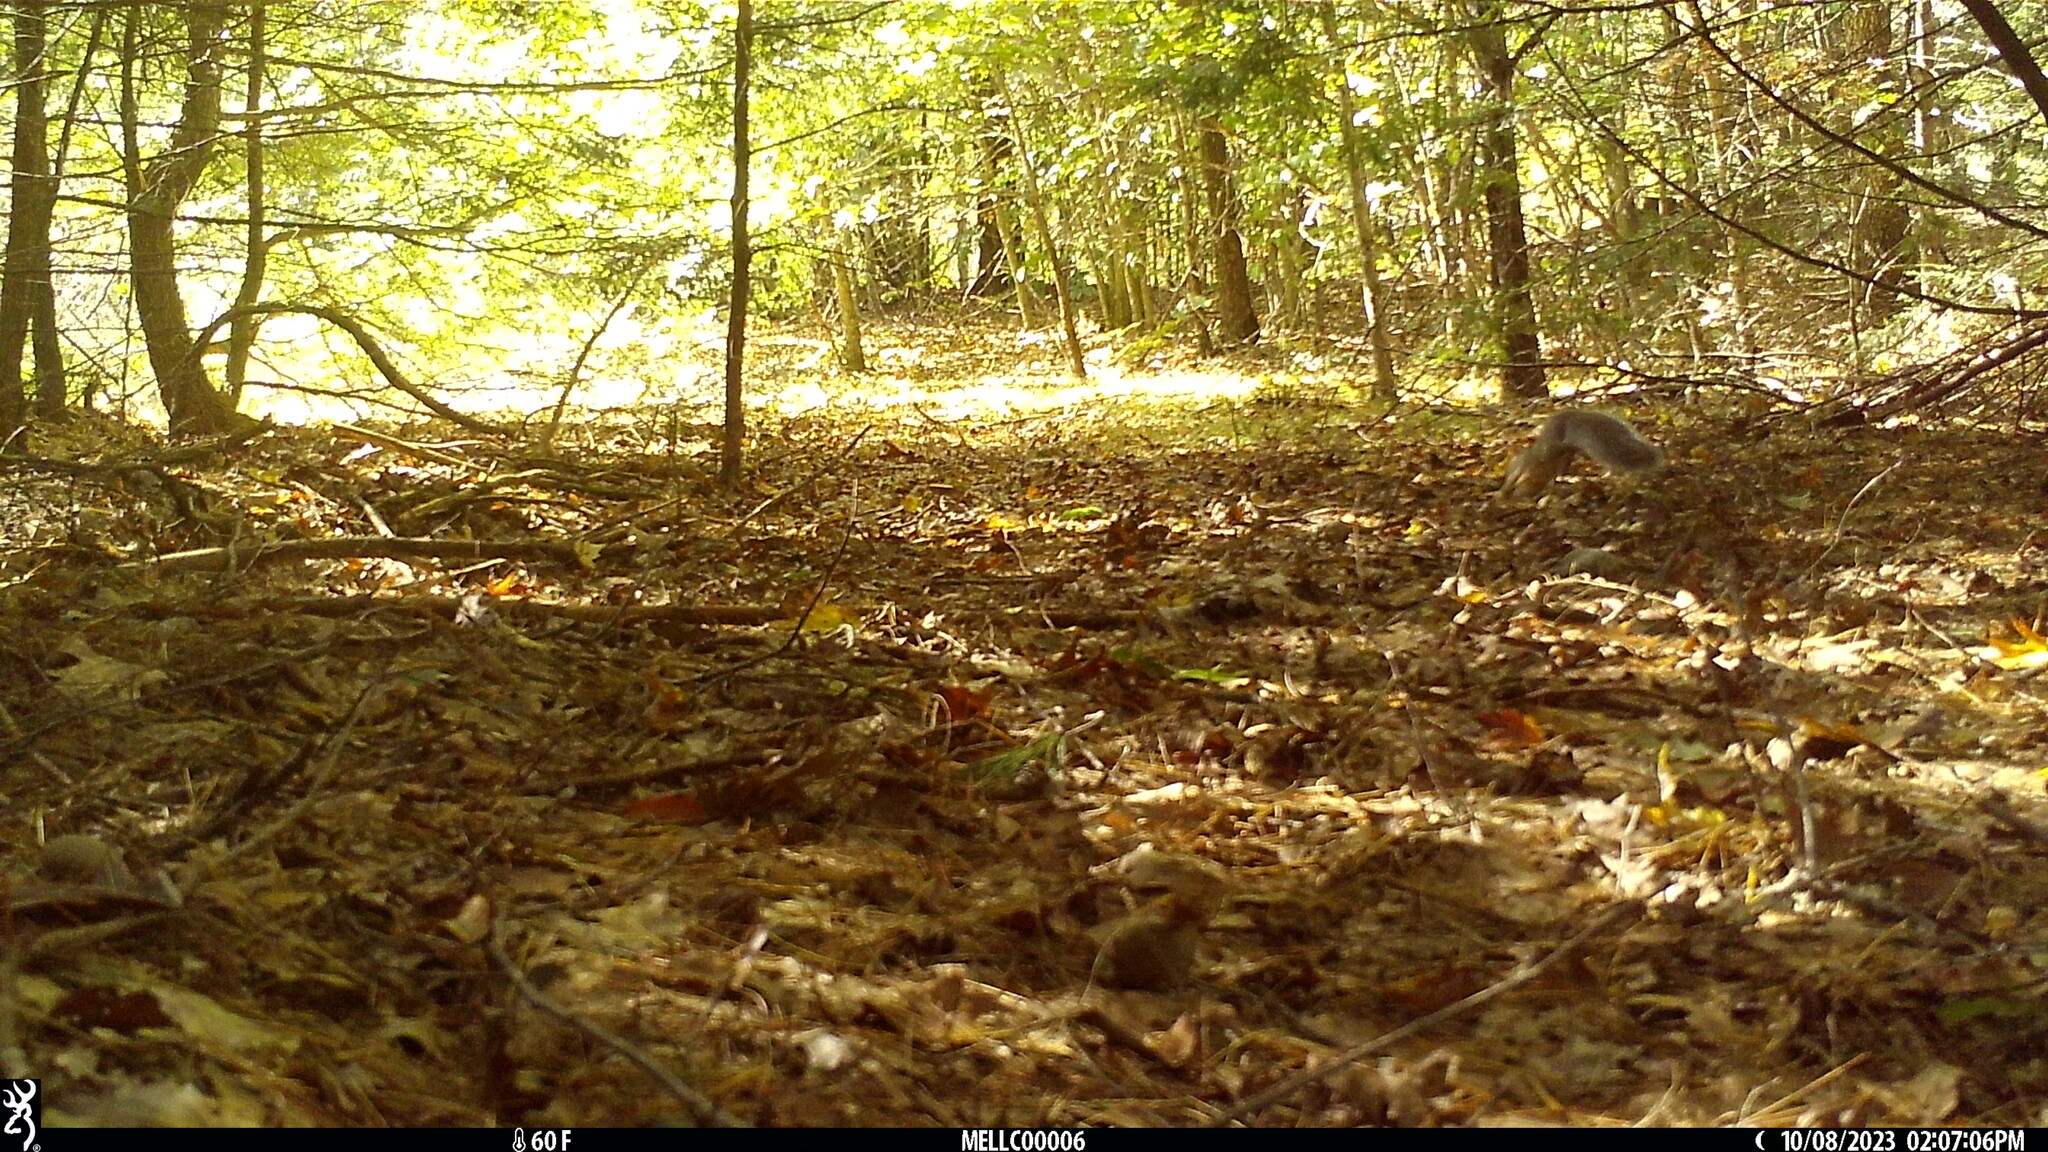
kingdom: Animalia
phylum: Chordata
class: Mammalia
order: Rodentia
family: Sciuridae
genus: Sciurus
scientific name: Sciurus carolinensis
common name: Eastern gray squirrel
